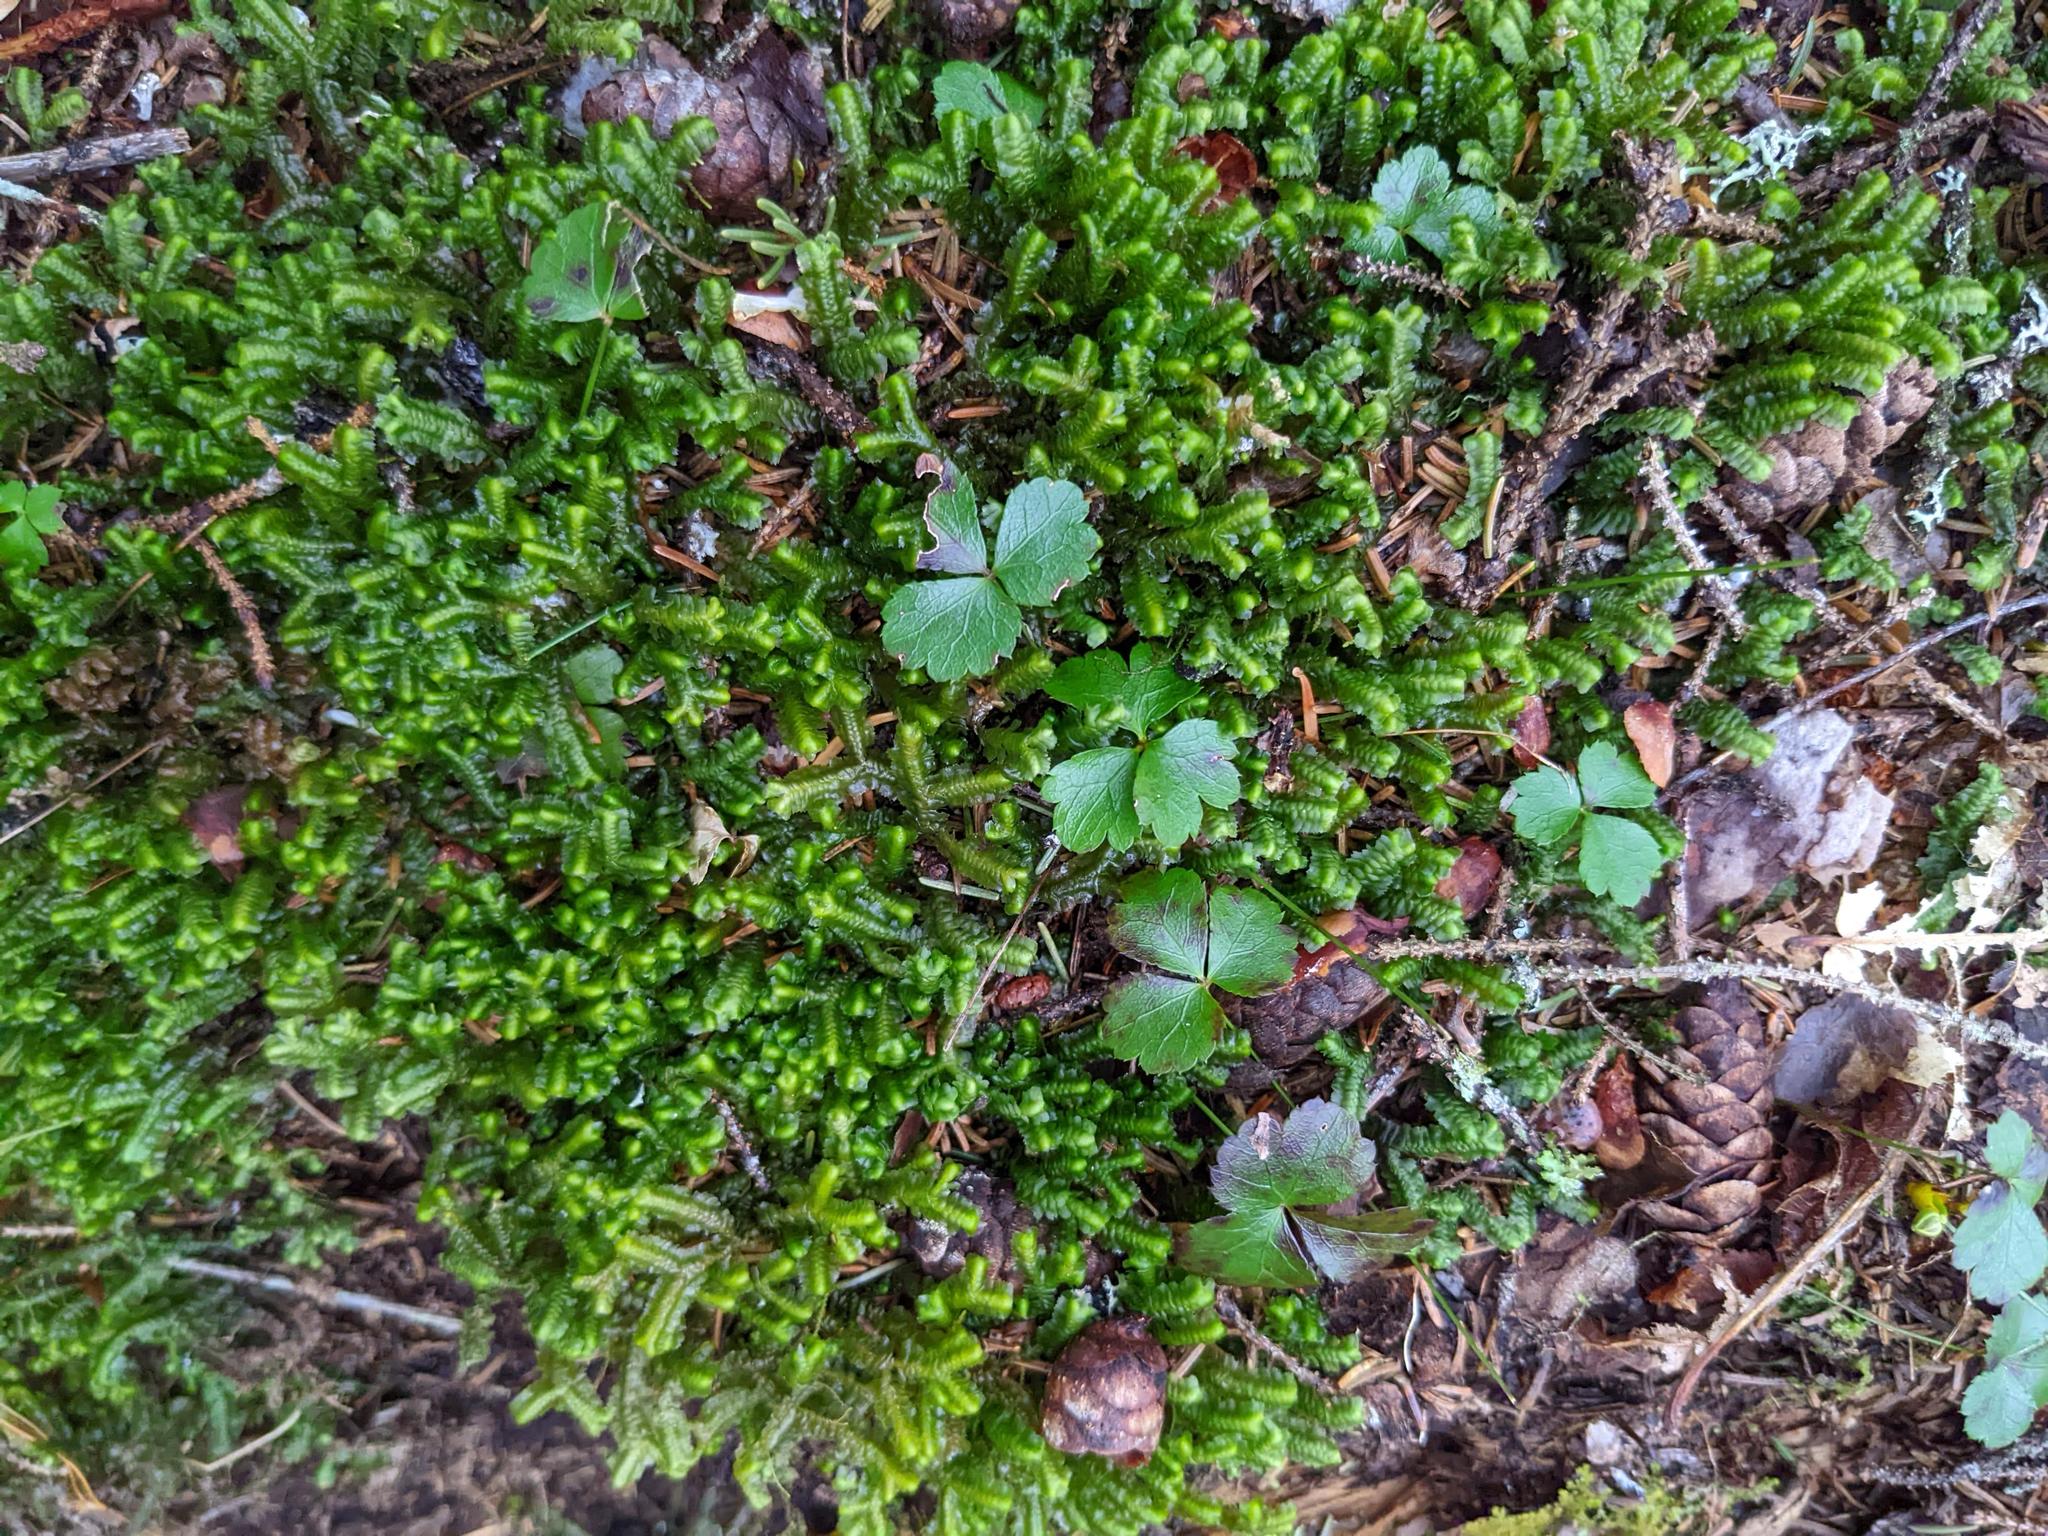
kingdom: Plantae
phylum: Tracheophyta
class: Magnoliopsida
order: Ranunculales
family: Ranunculaceae
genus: Coptis
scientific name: Coptis trifolia
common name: Canker-root
